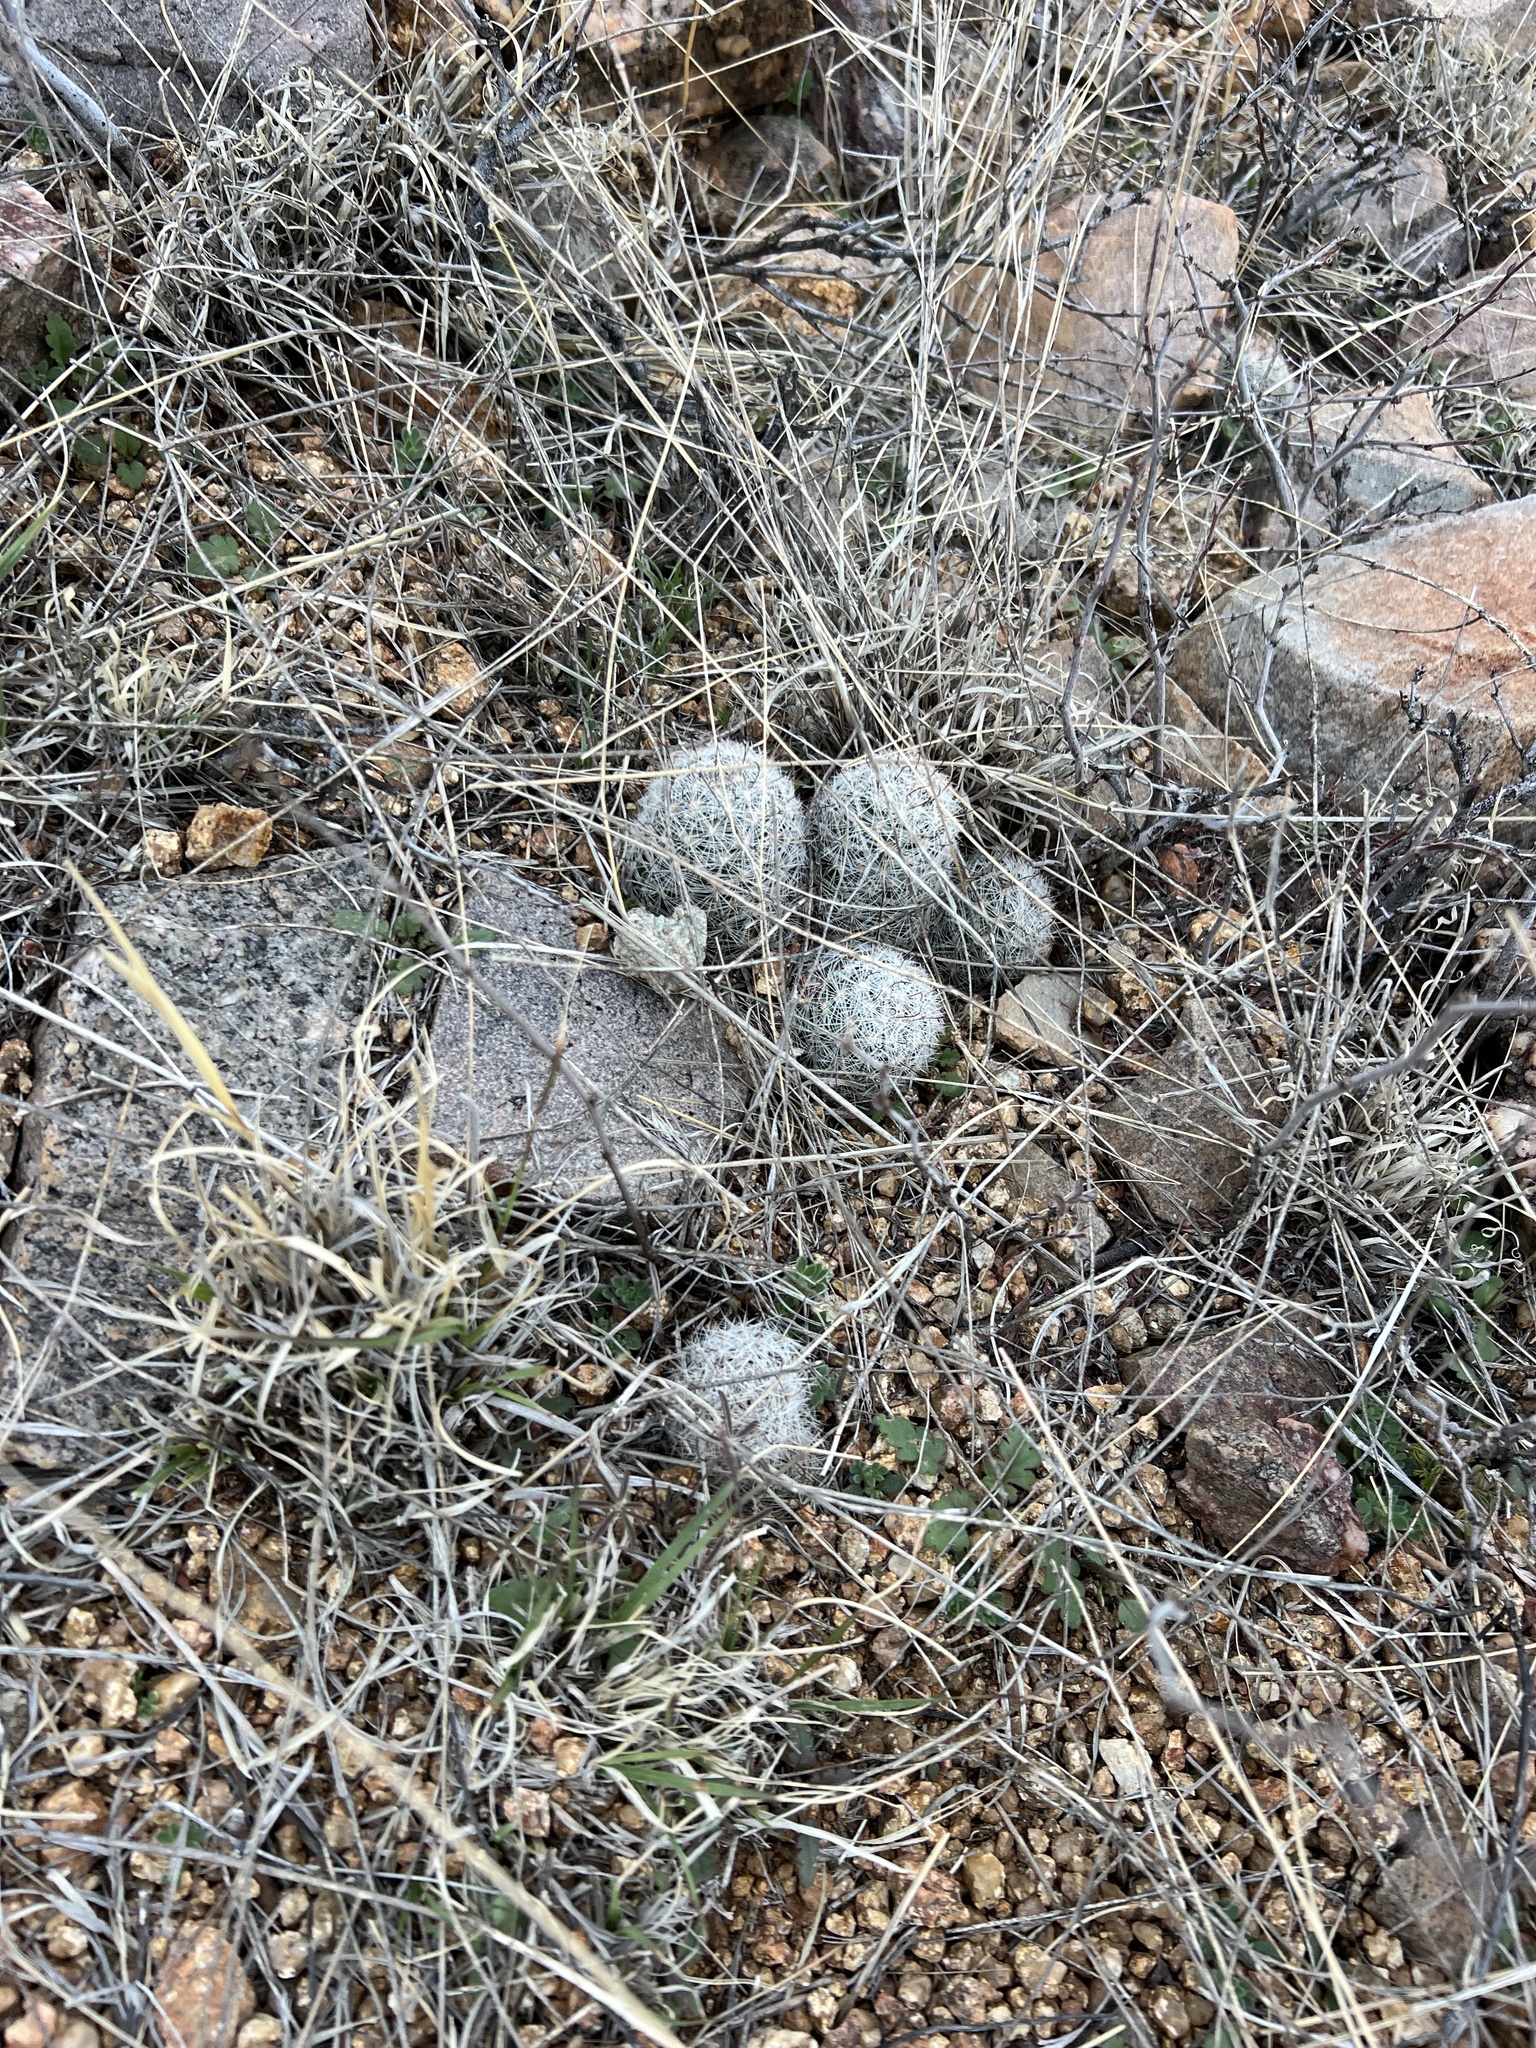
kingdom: Plantae
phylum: Tracheophyta
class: Magnoliopsida
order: Caryophyllales
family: Cactaceae
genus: Cochemiea
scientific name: Cochemiea grahamii
